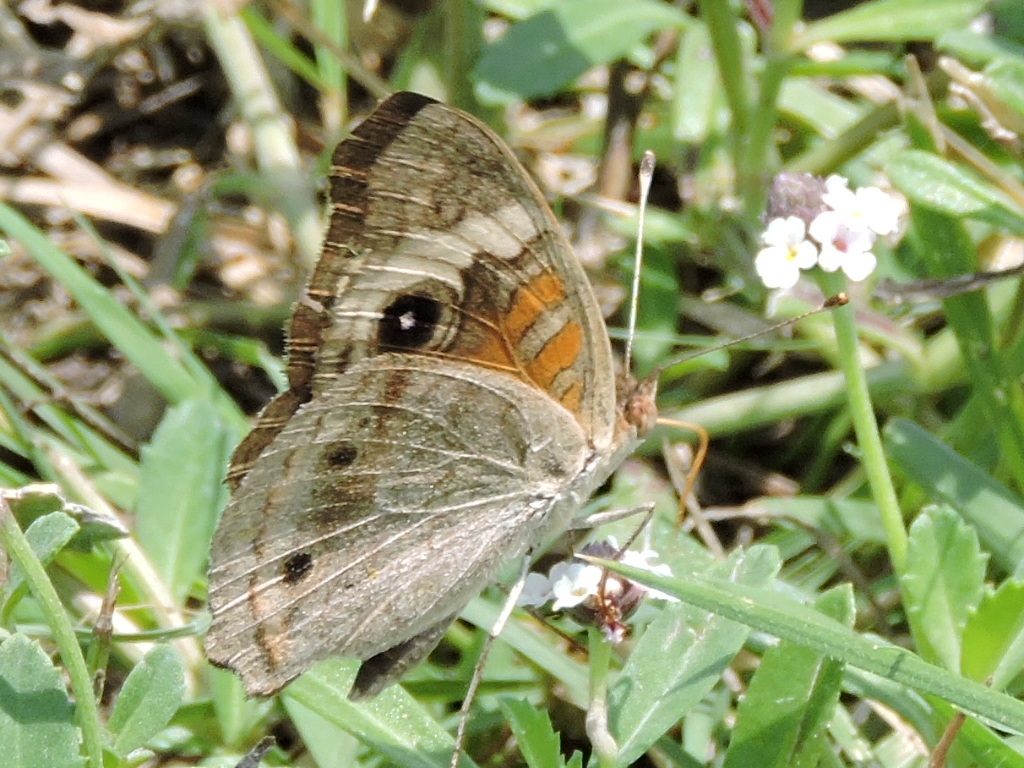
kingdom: Animalia
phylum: Arthropoda
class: Insecta
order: Lepidoptera
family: Nymphalidae
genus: Junonia
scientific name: Junonia coenia
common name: Common buckeye
